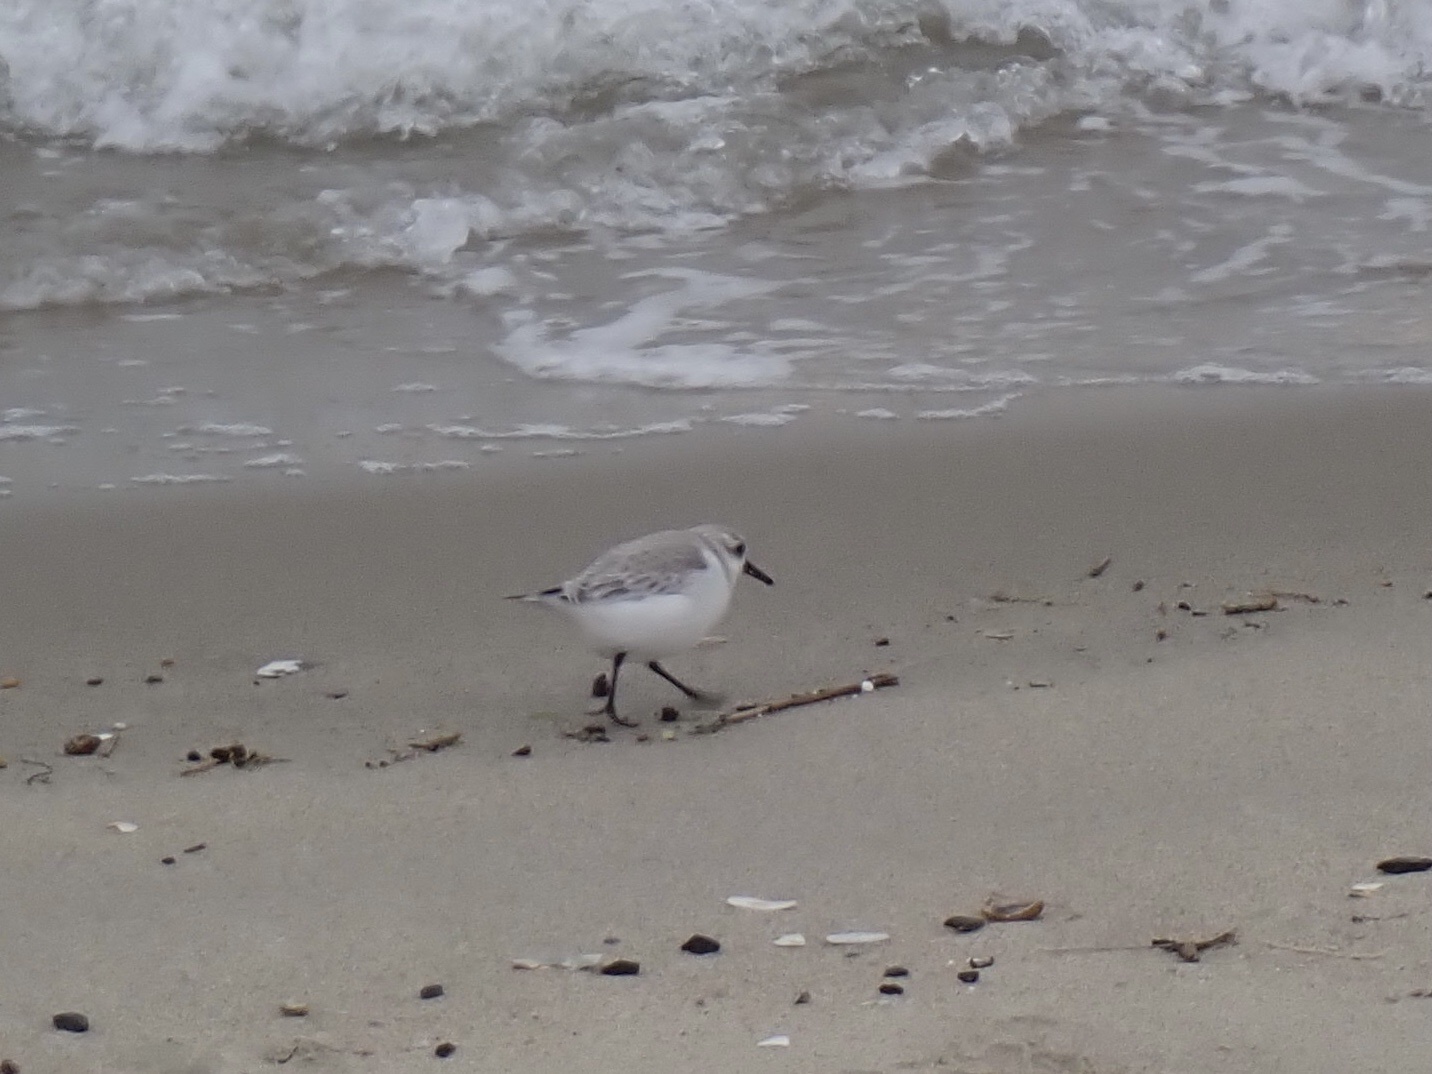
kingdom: Animalia
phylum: Chordata
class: Aves
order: Charadriiformes
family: Scolopacidae
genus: Calidris
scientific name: Calidris alba
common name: Sanderling
